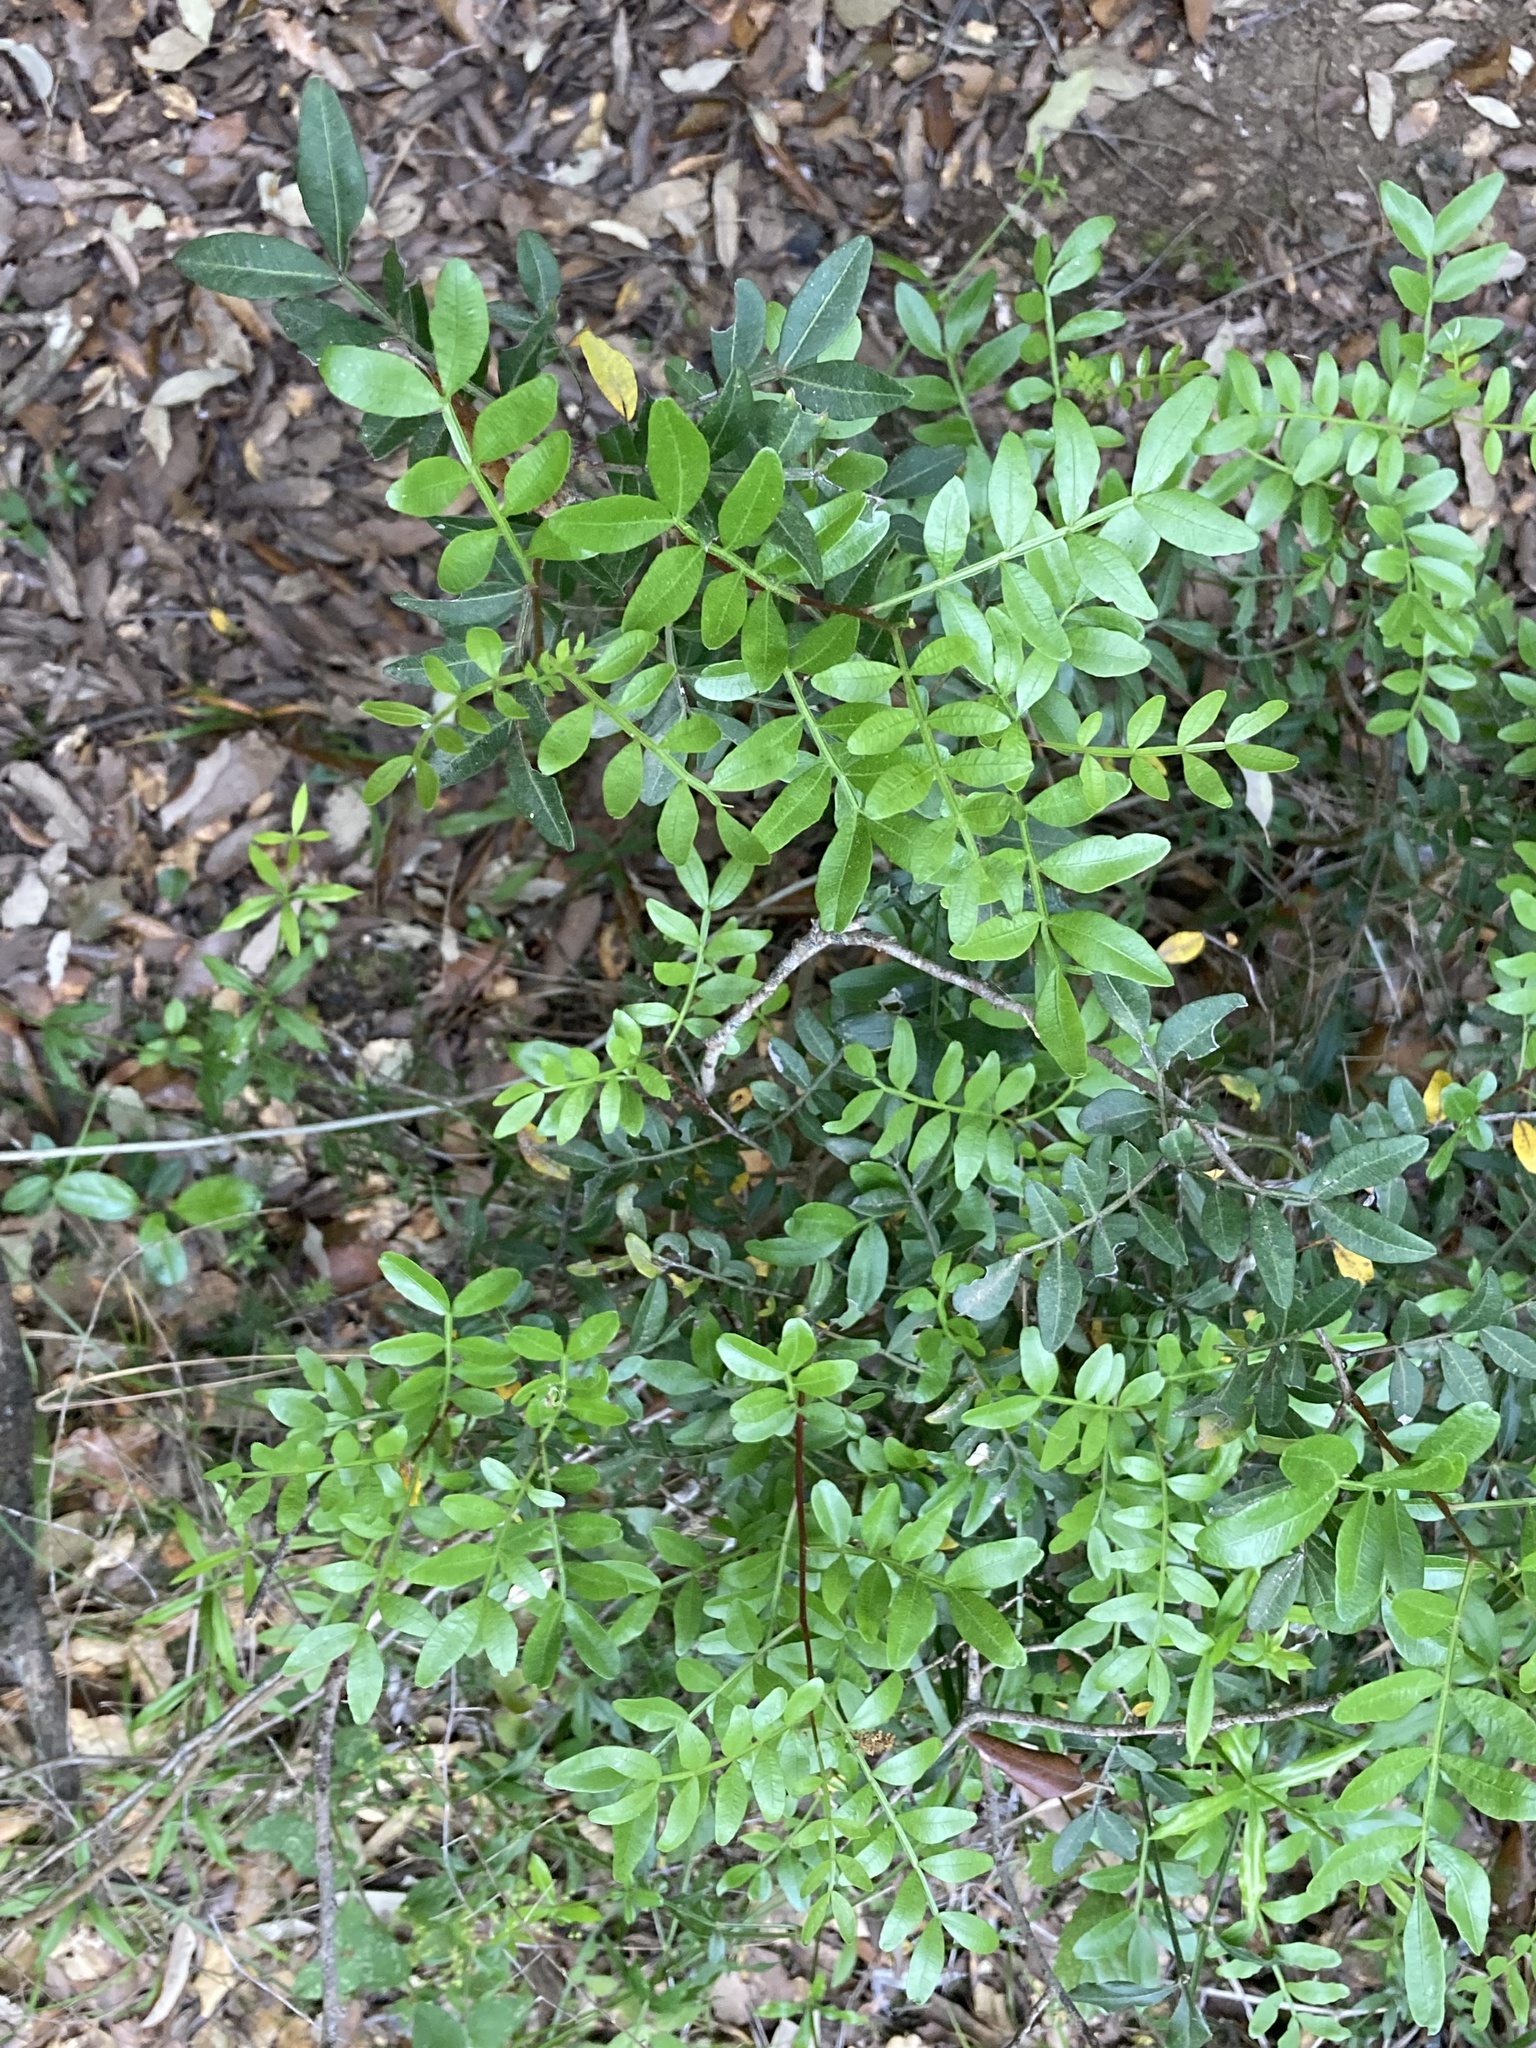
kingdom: Plantae
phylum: Tracheophyta
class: Magnoliopsida
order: Sapindales
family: Anacardiaceae
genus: Pistacia
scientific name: Pistacia lentiscus
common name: Lentisk
